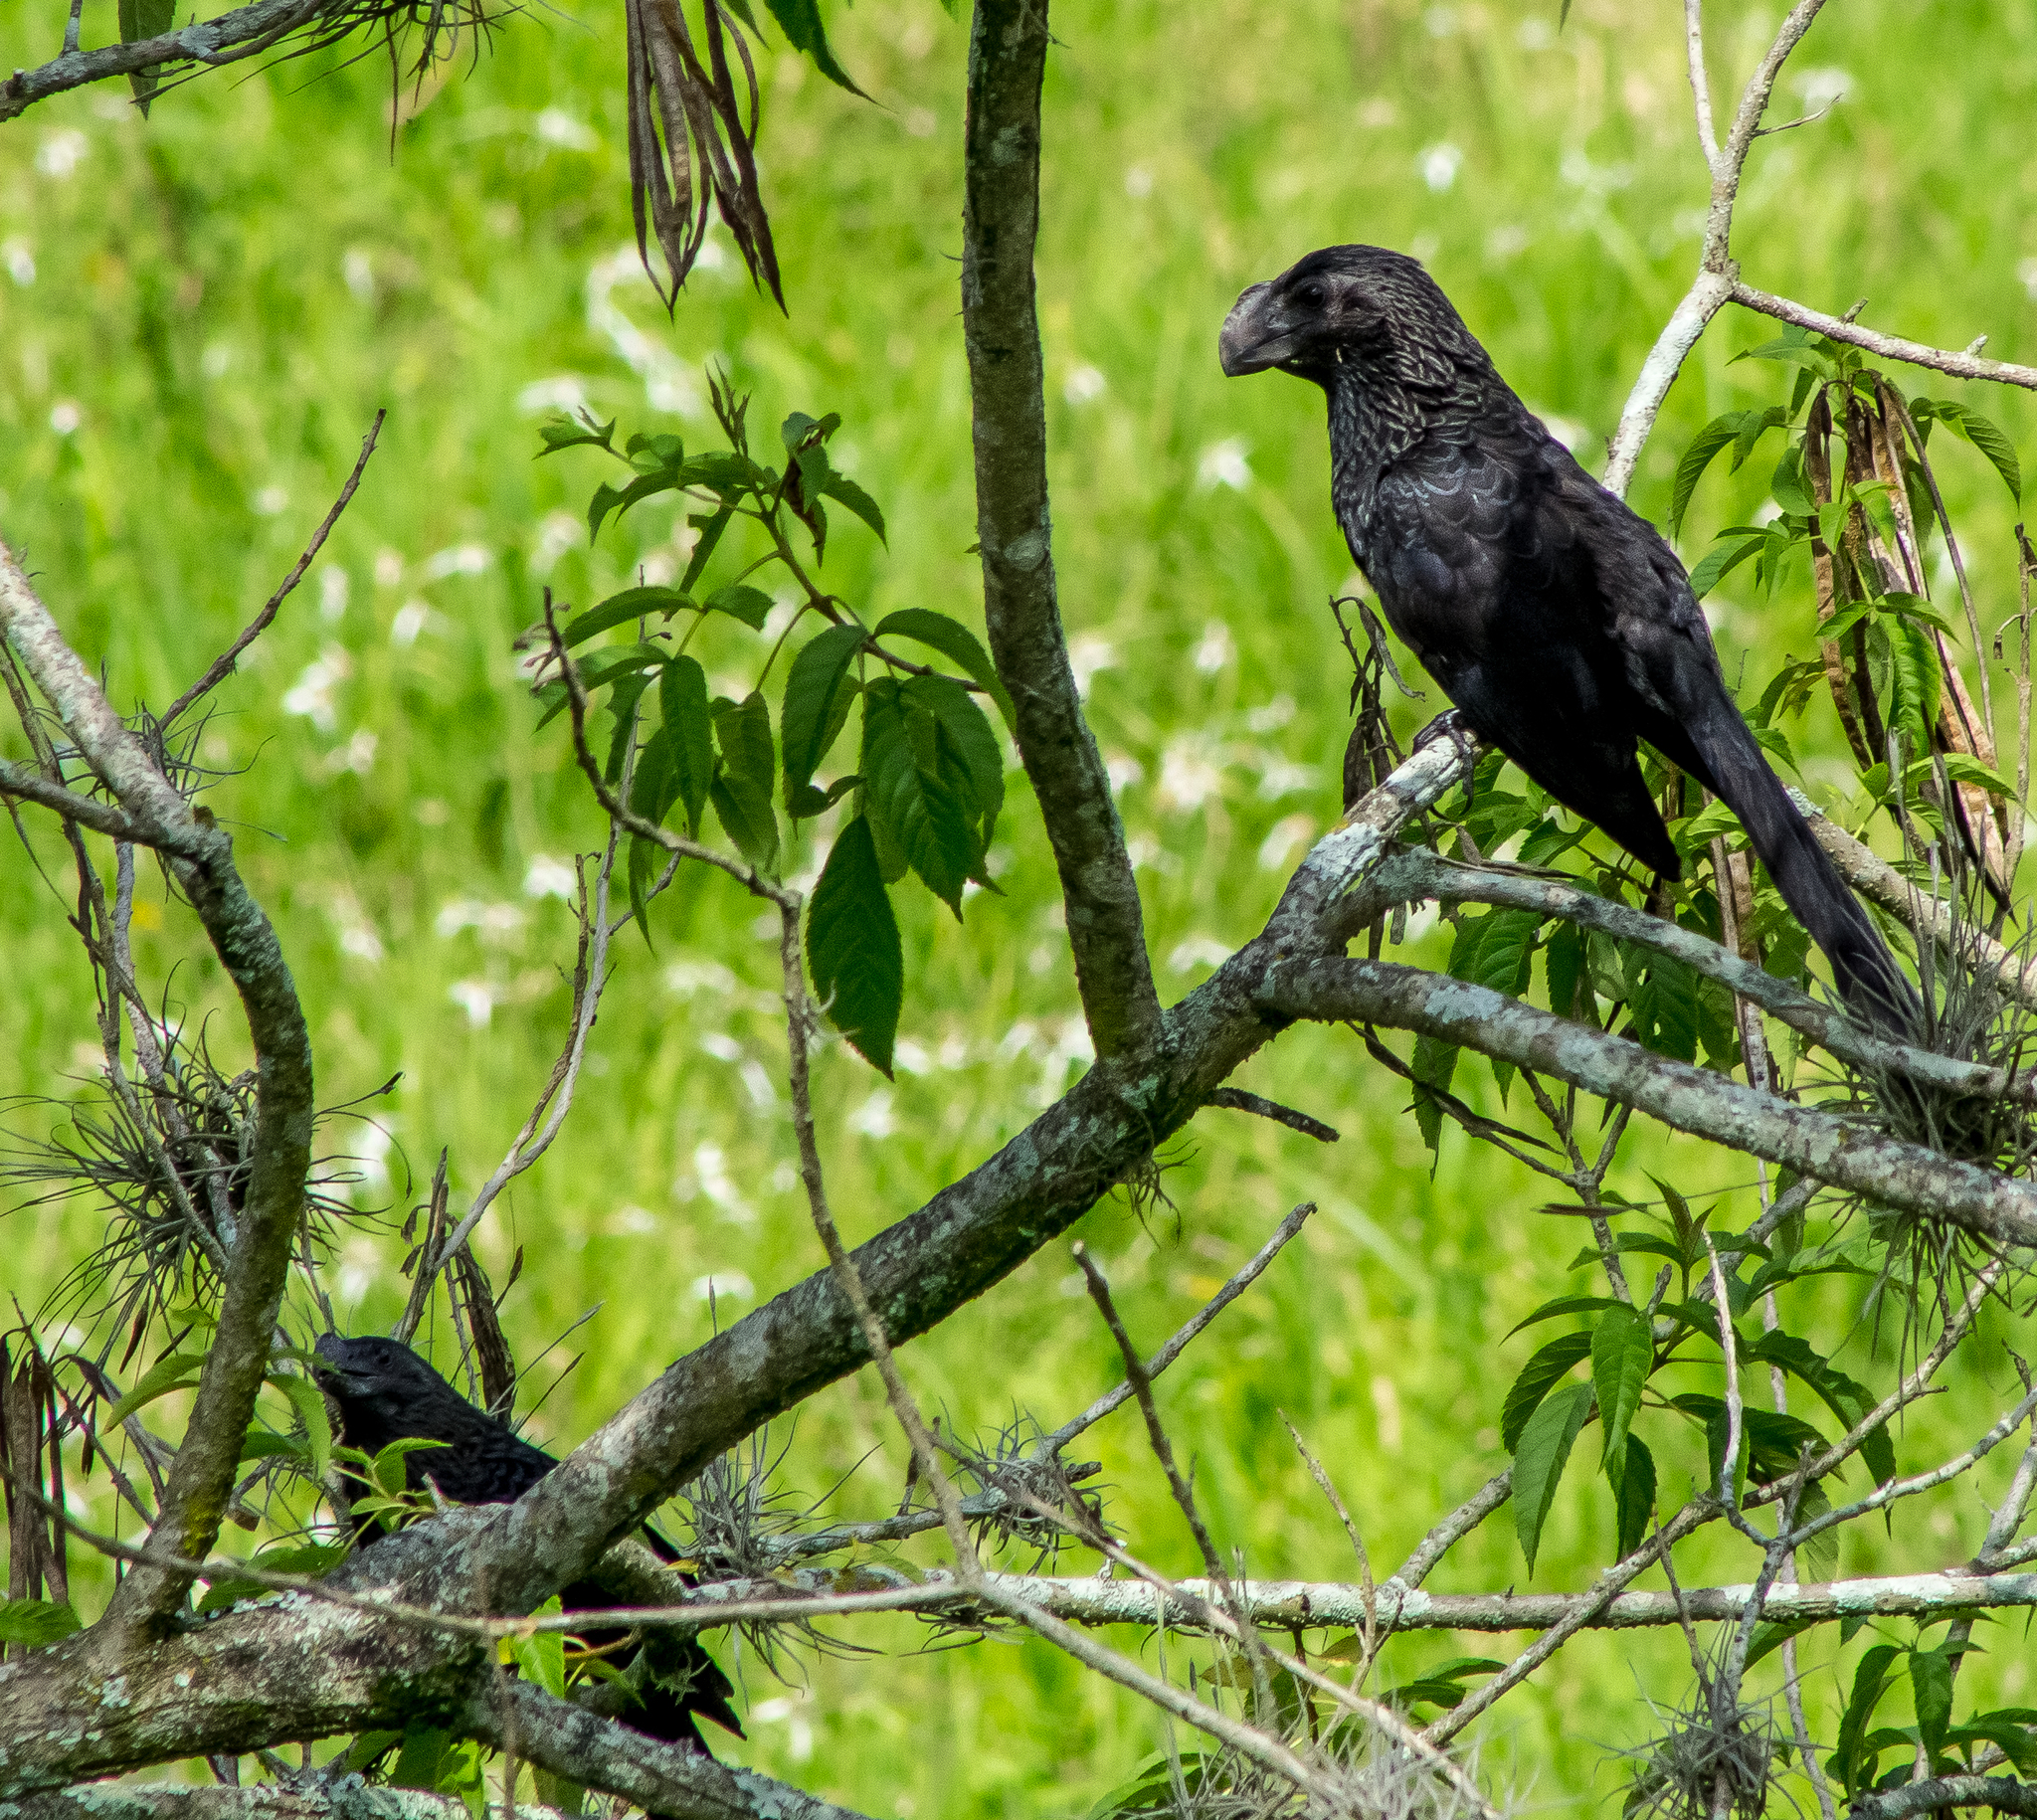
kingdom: Animalia
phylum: Chordata
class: Aves
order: Cuculiformes
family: Cuculidae
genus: Crotophaga
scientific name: Crotophaga ani
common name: Smooth-billed ani
